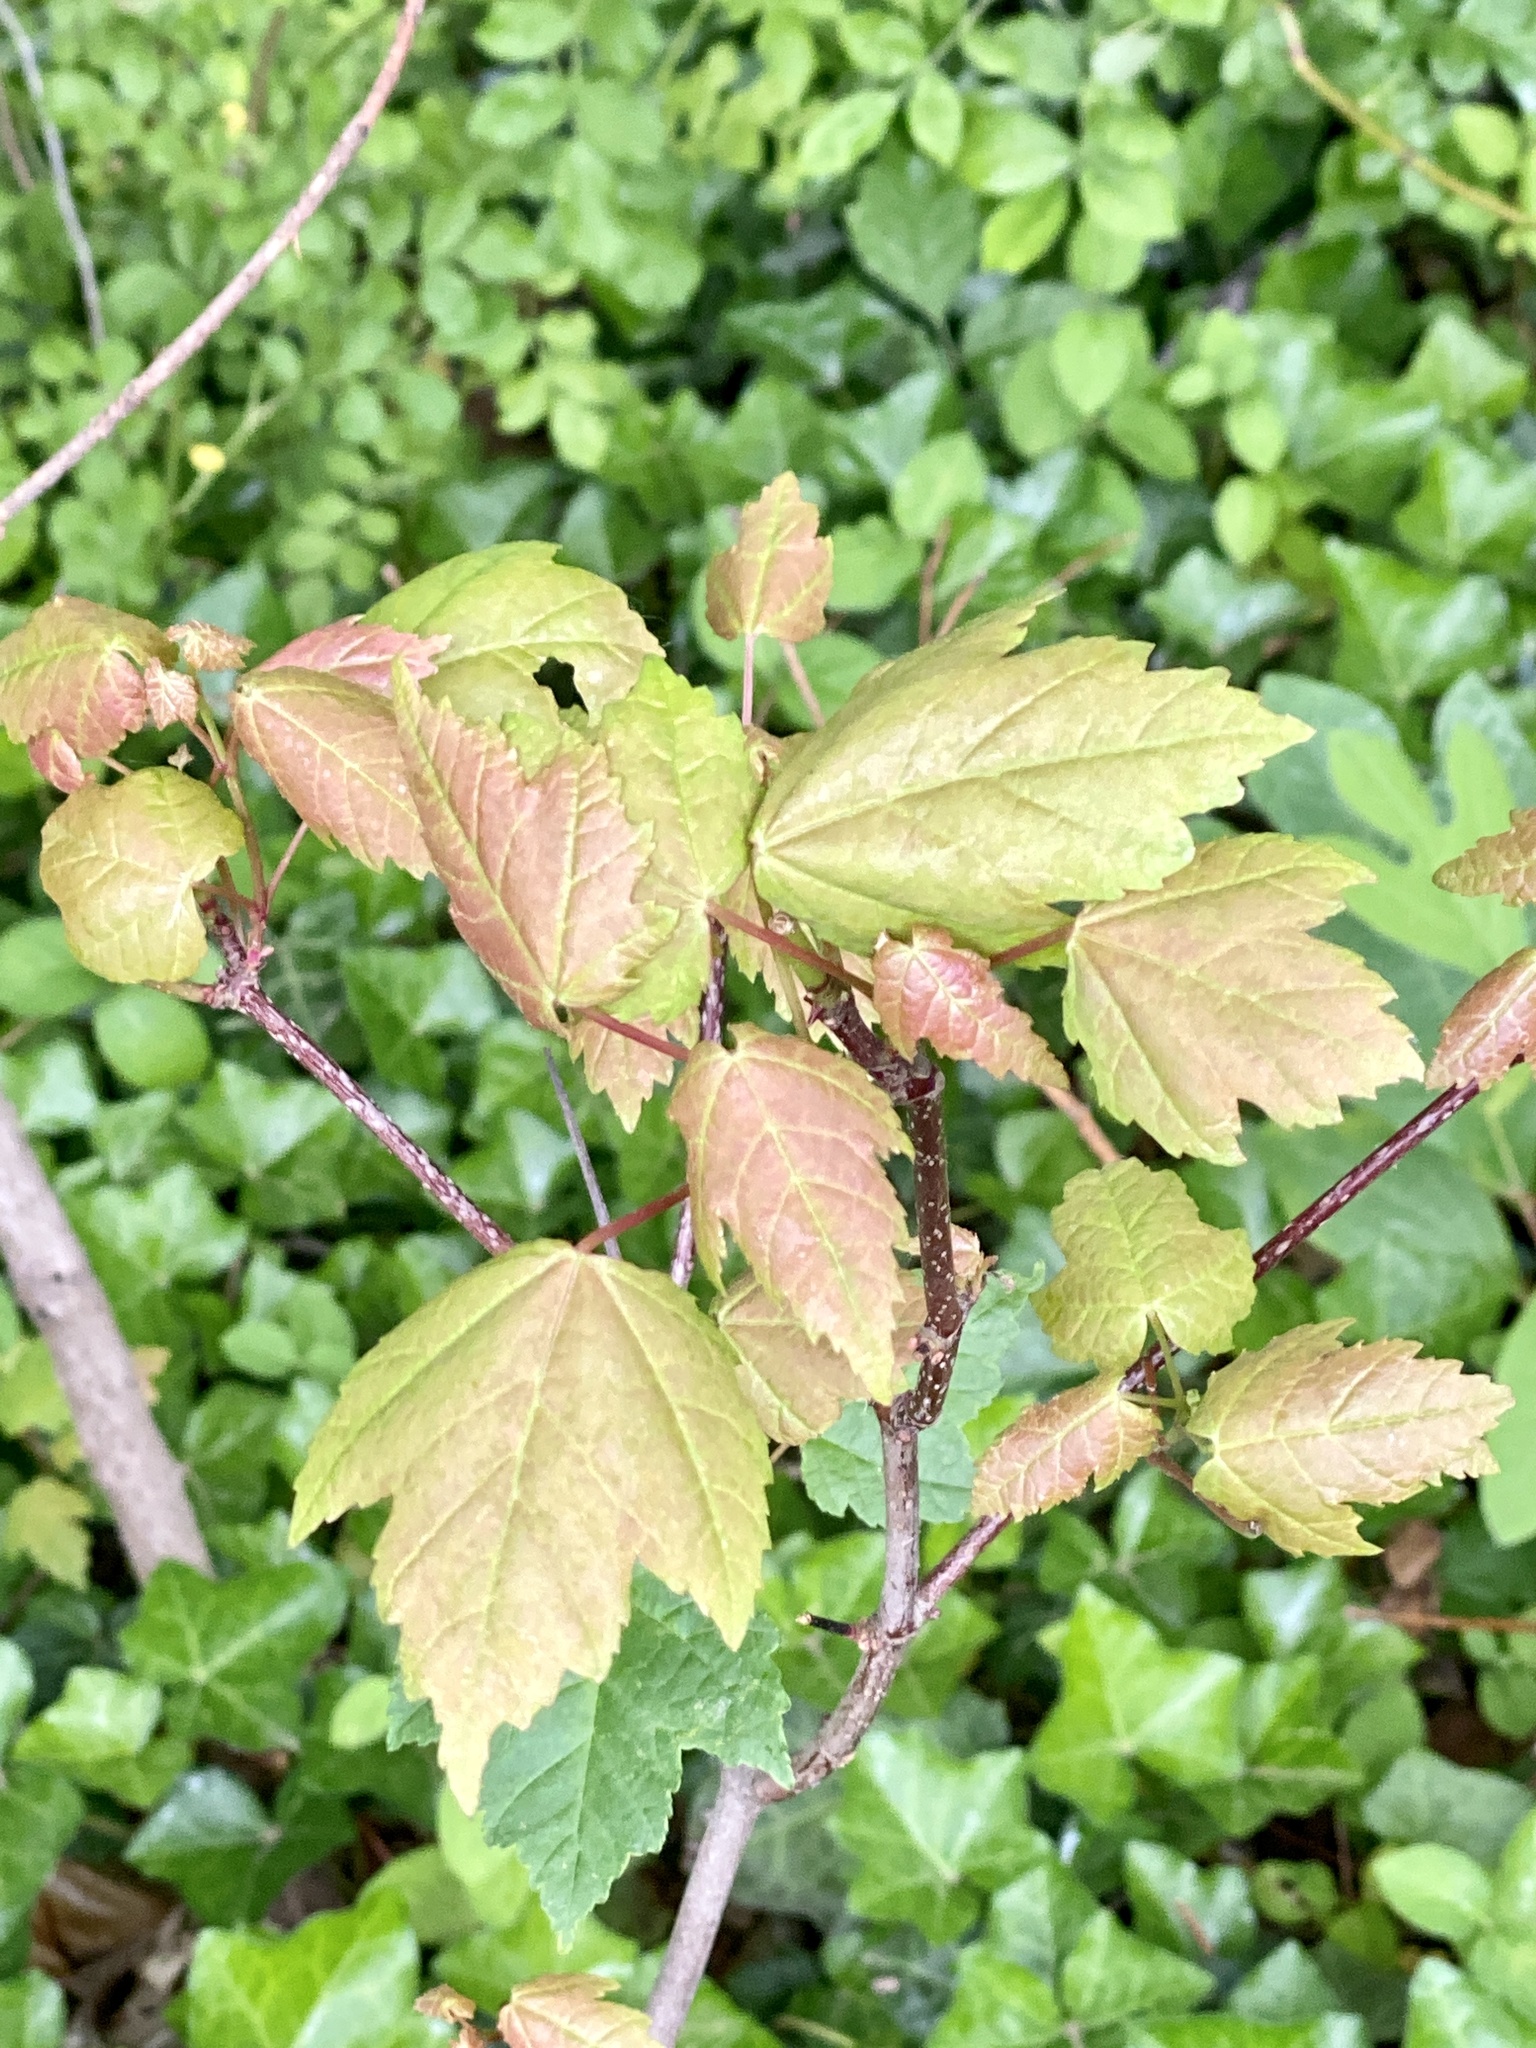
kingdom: Plantae
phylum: Tracheophyta
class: Magnoliopsida
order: Sapindales
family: Sapindaceae
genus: Acer
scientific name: Acer rubrum
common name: Red maple
